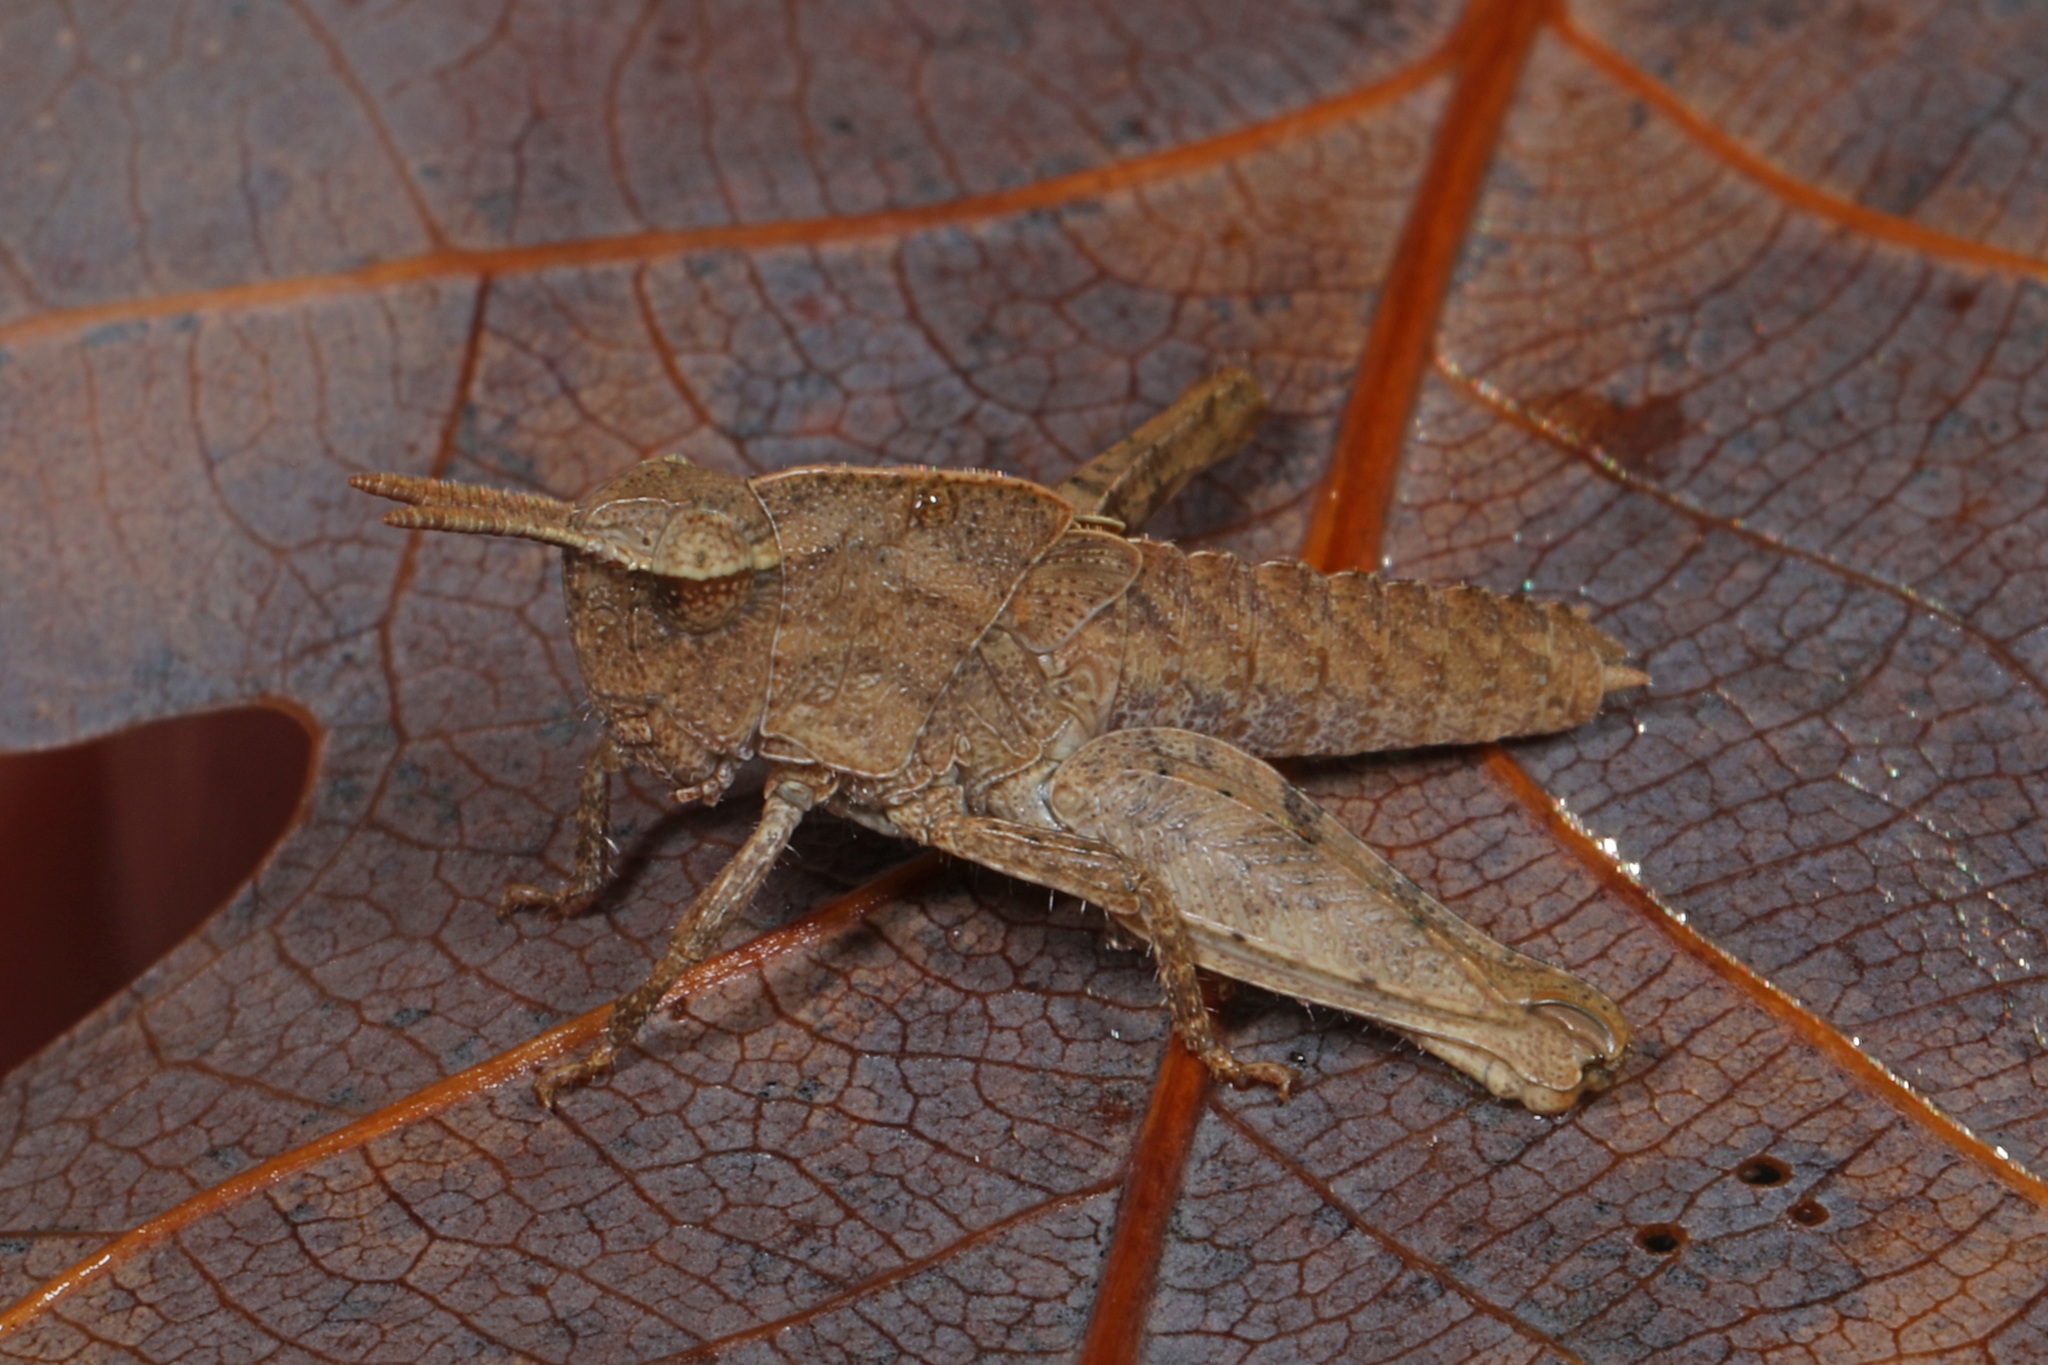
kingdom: Animalia
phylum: Arthropoda
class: Insecta
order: Orthoptera
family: Acrididae
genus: Chortophaga
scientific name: Chortophaga viridifasciata
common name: Green-striped grasshopper
